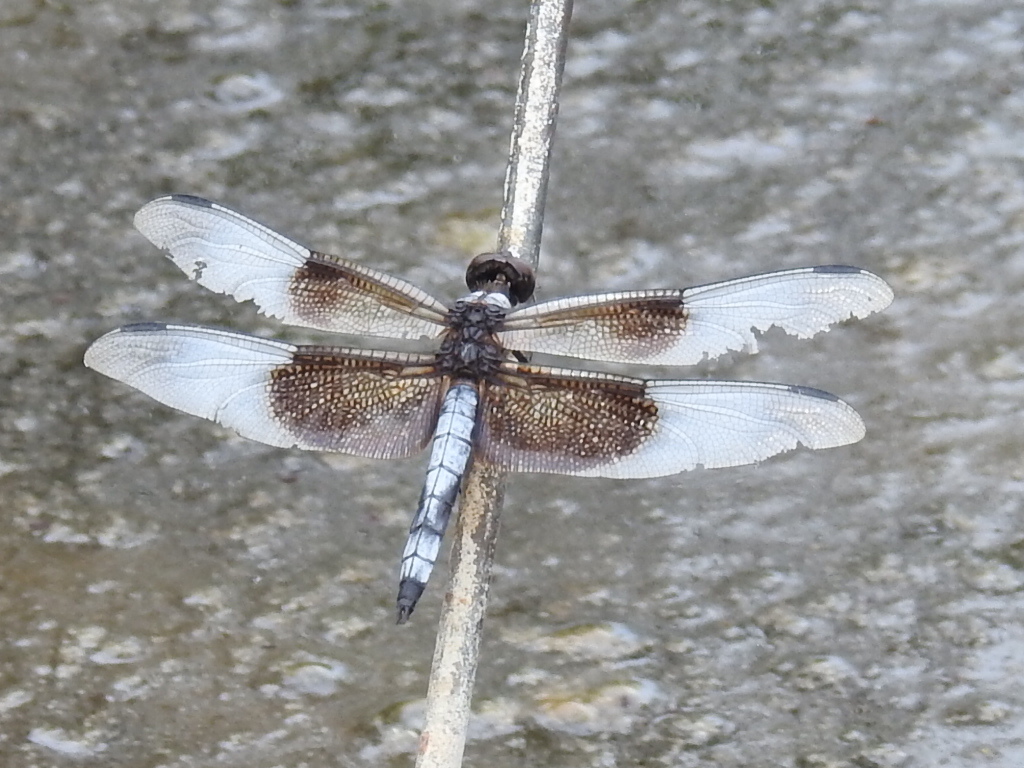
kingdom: Animalia
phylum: Arthropoda
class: Insecta
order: Odonata
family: Libellulidae
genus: Libellula
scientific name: Libellula luctuosa
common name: Widow skimmer
